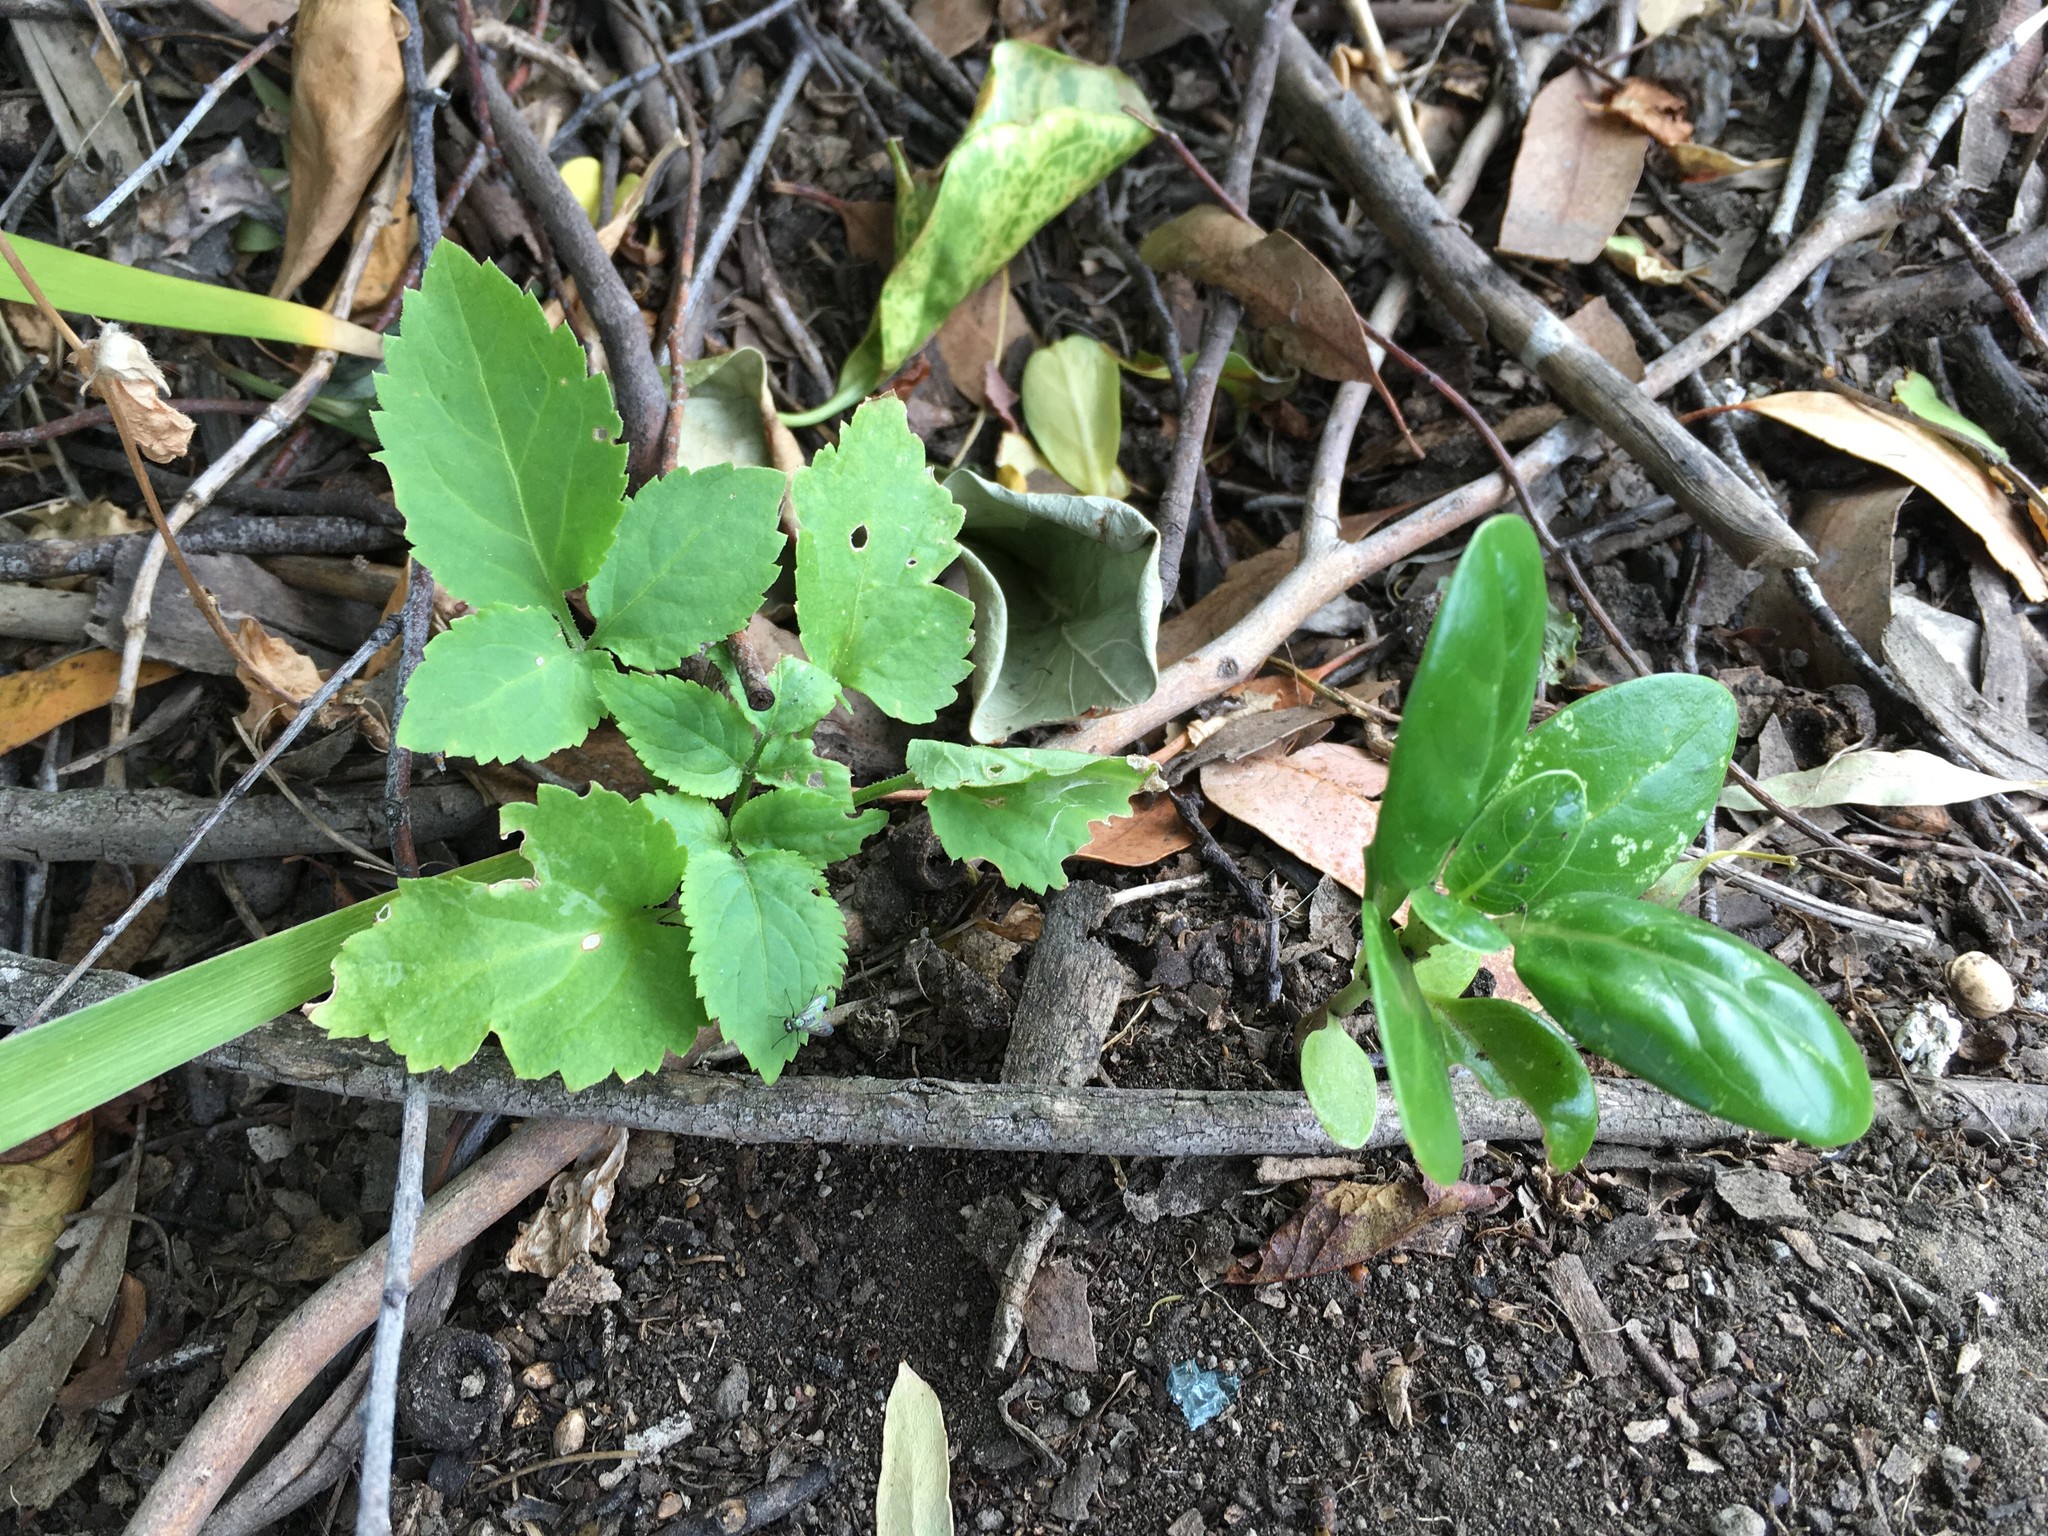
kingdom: Plantae
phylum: Tracheophyta
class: Magnoliopsida
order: Gentianales
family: Rubiaceae
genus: Coprosma
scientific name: Coprosma repens
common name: Tree bedstraw
